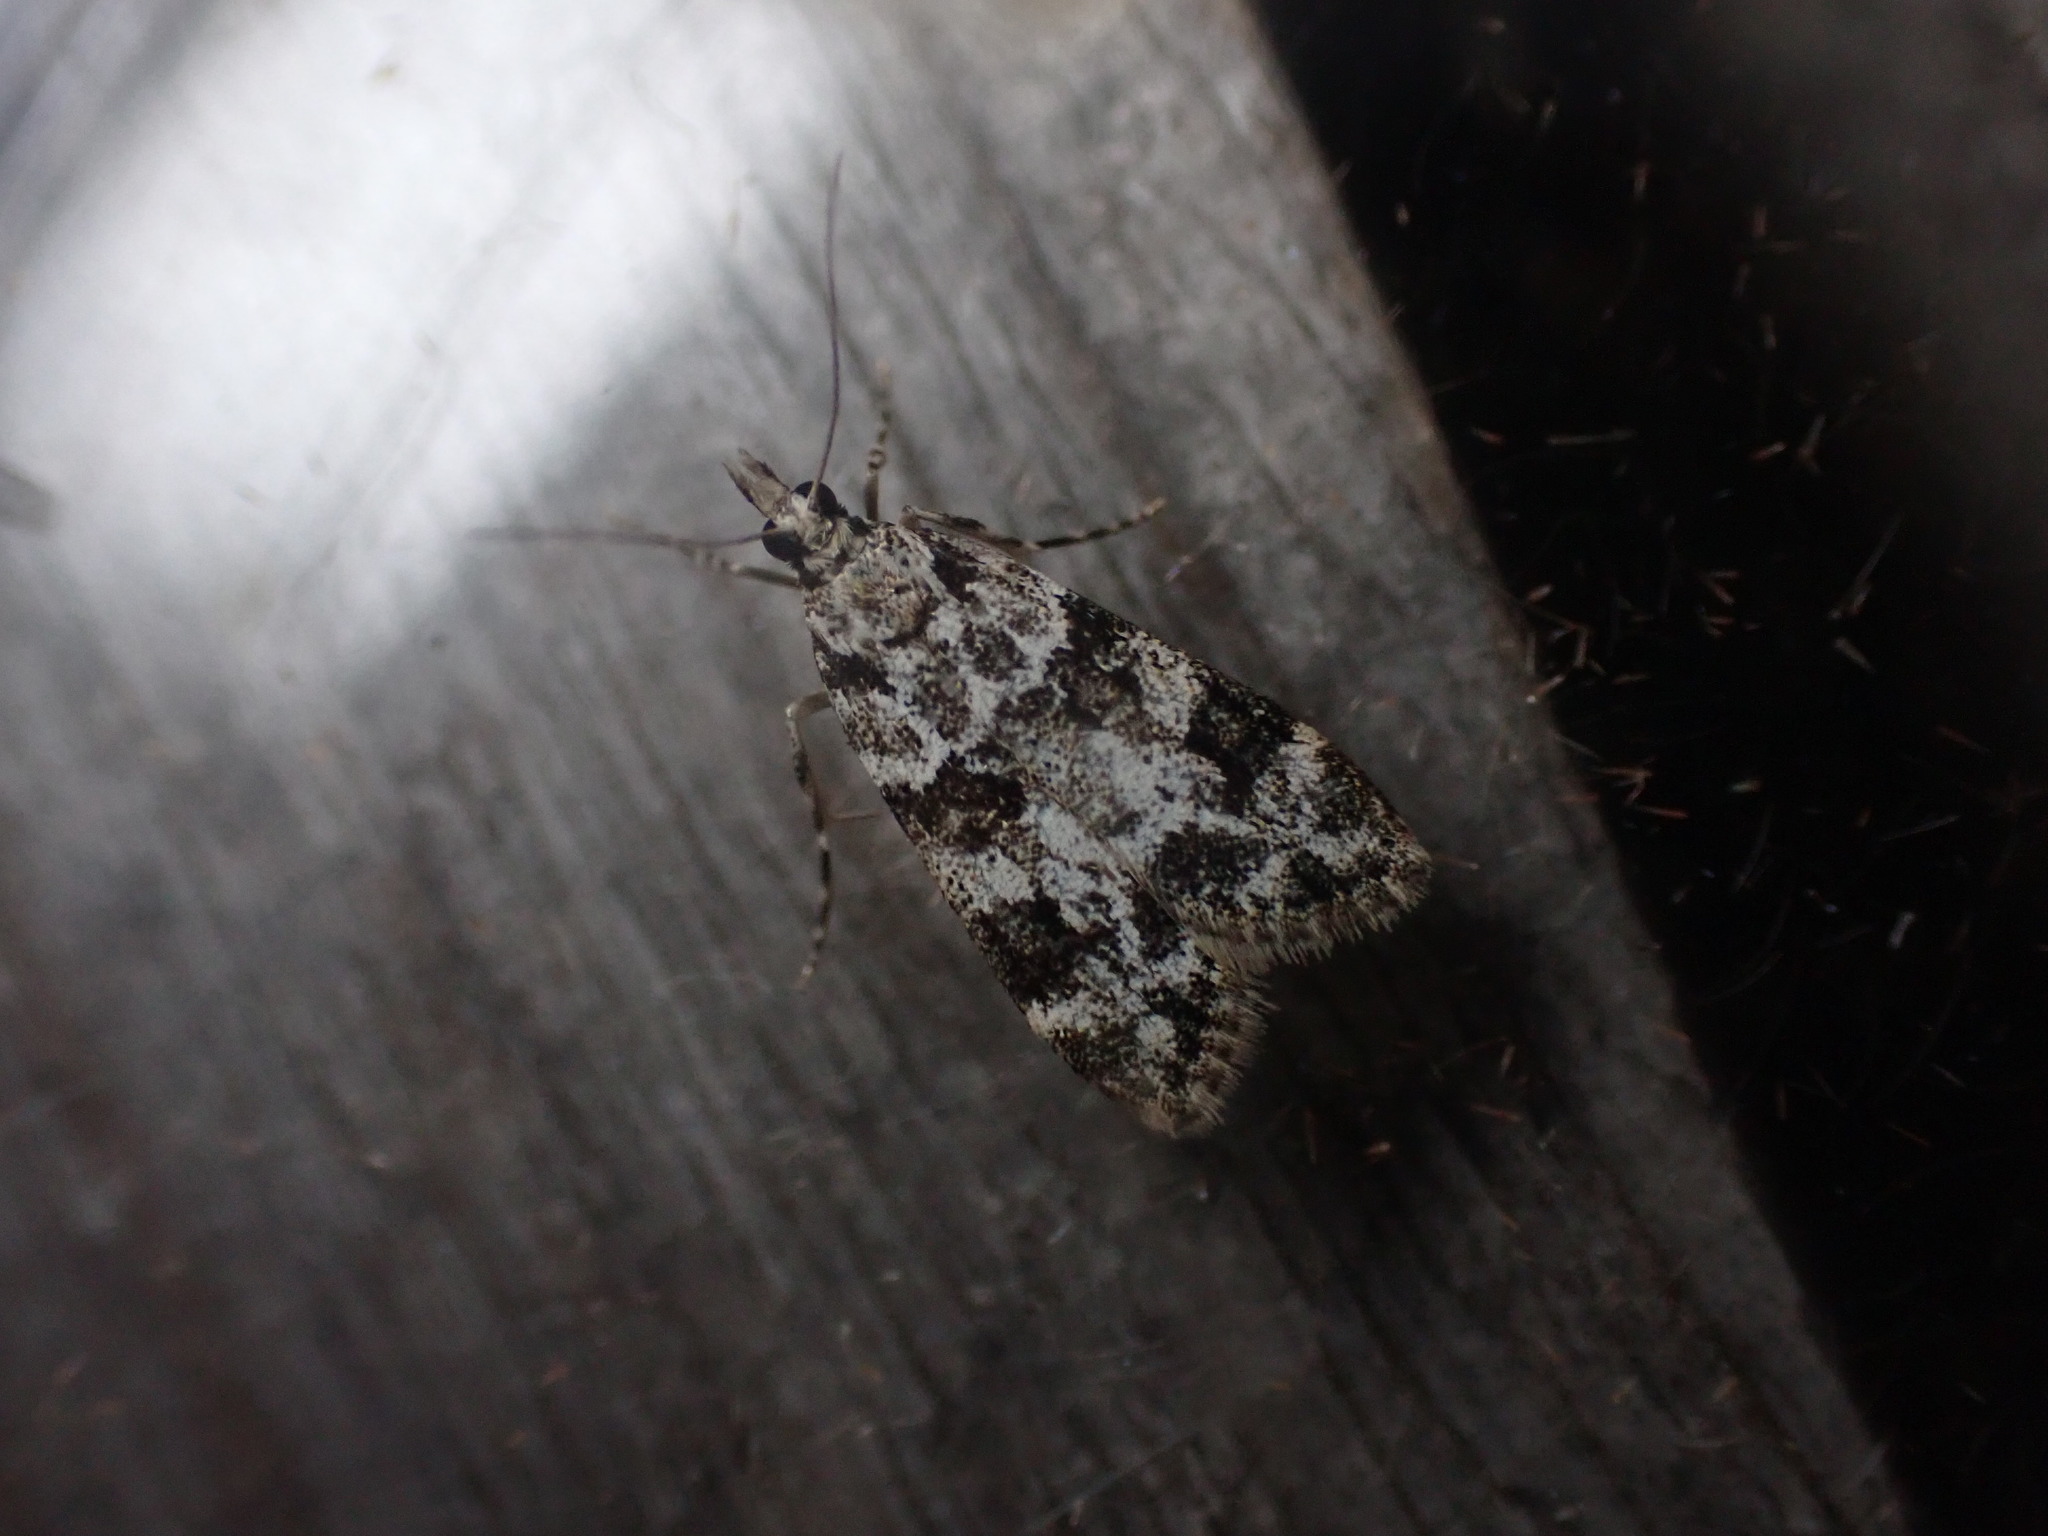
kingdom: Animalia
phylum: Arthropoda
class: Insecta
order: Lepidoptera
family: Crambidae
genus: Eudonia
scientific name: Eudonia delunella
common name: Pied grey
